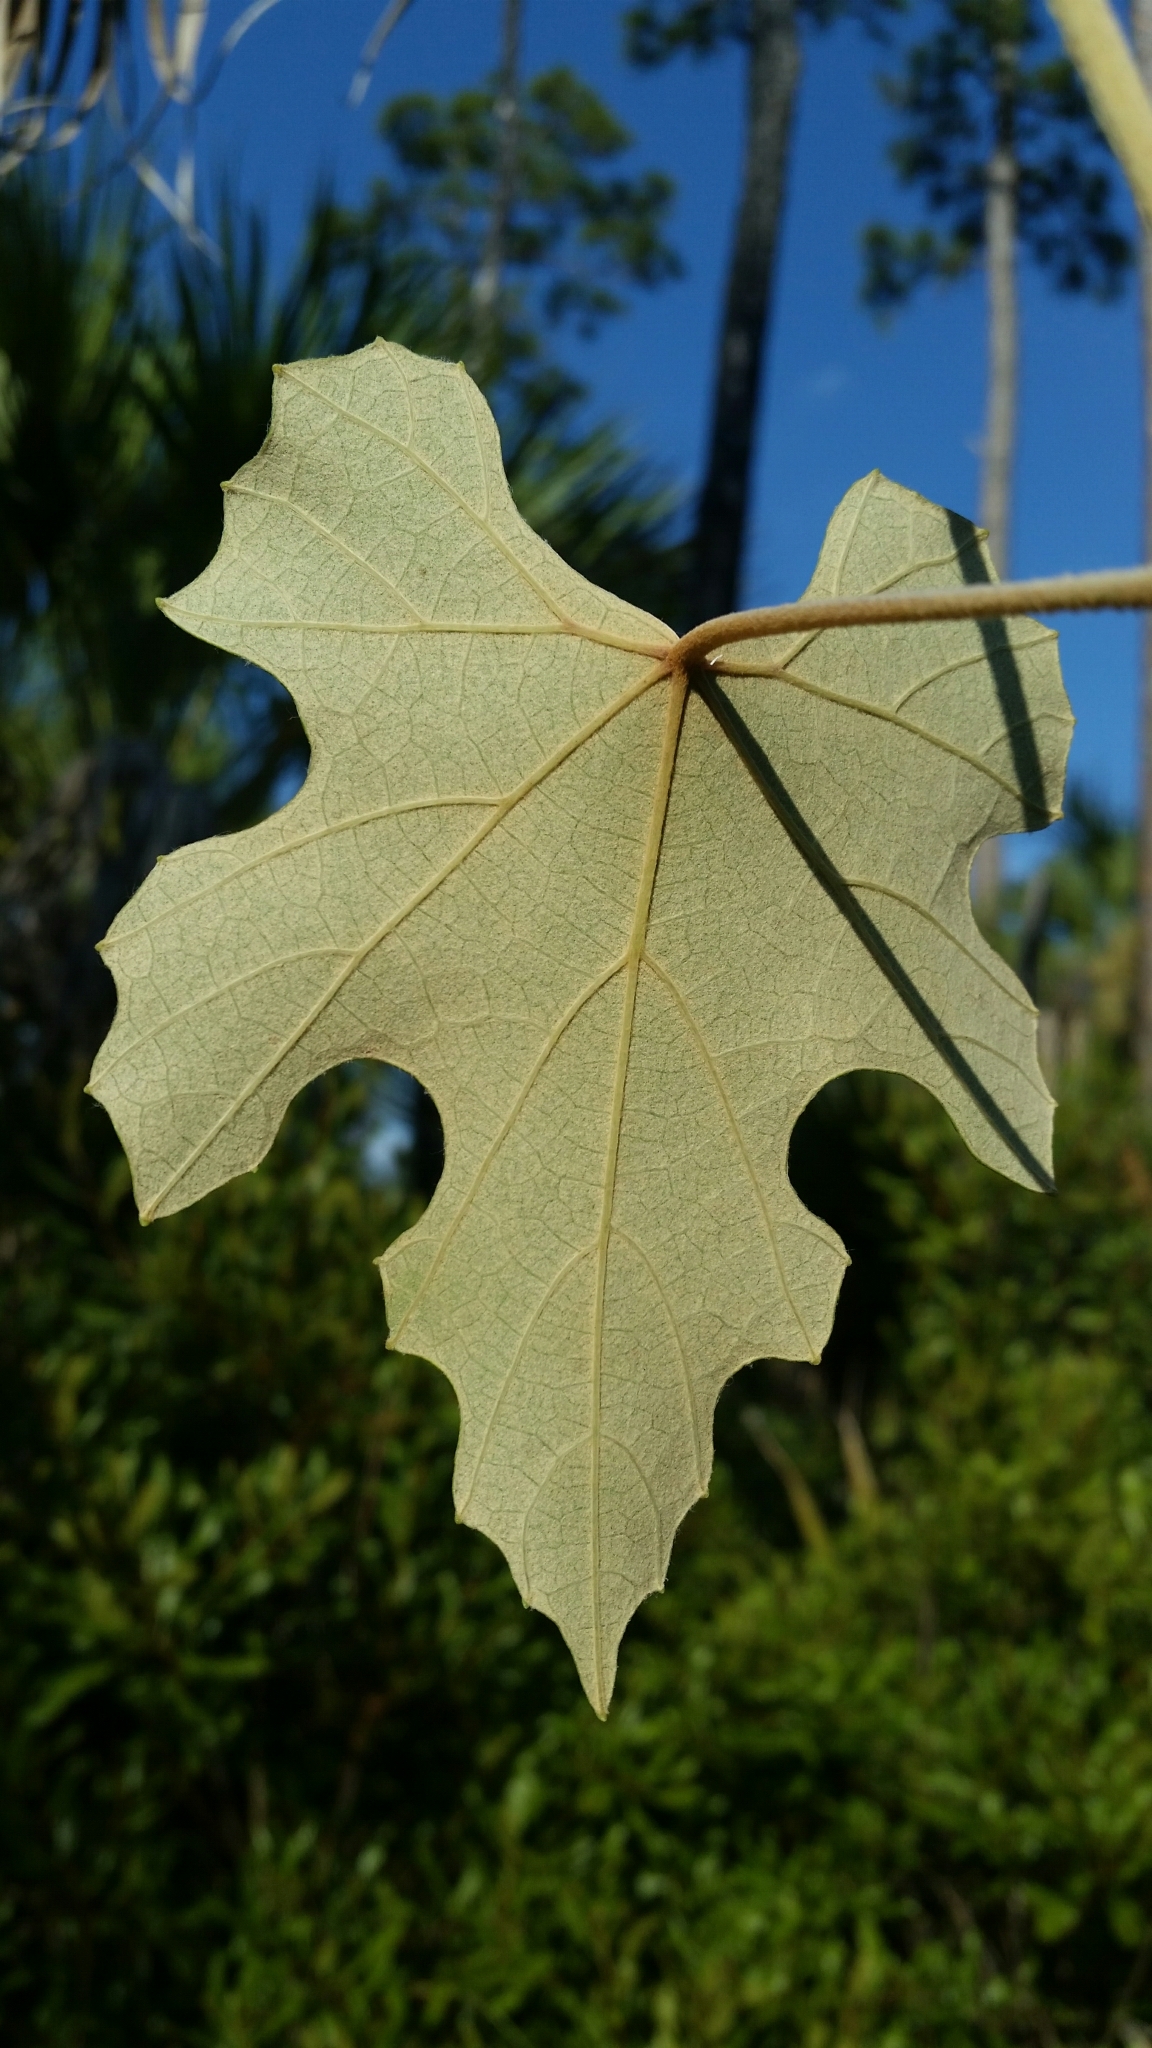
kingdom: Plantae
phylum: Tracheophyta
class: Magnoliopsida
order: Vitales
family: Vitaceae
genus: Vitis
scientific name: Vitis shuttleworthii
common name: Caloosa grape
